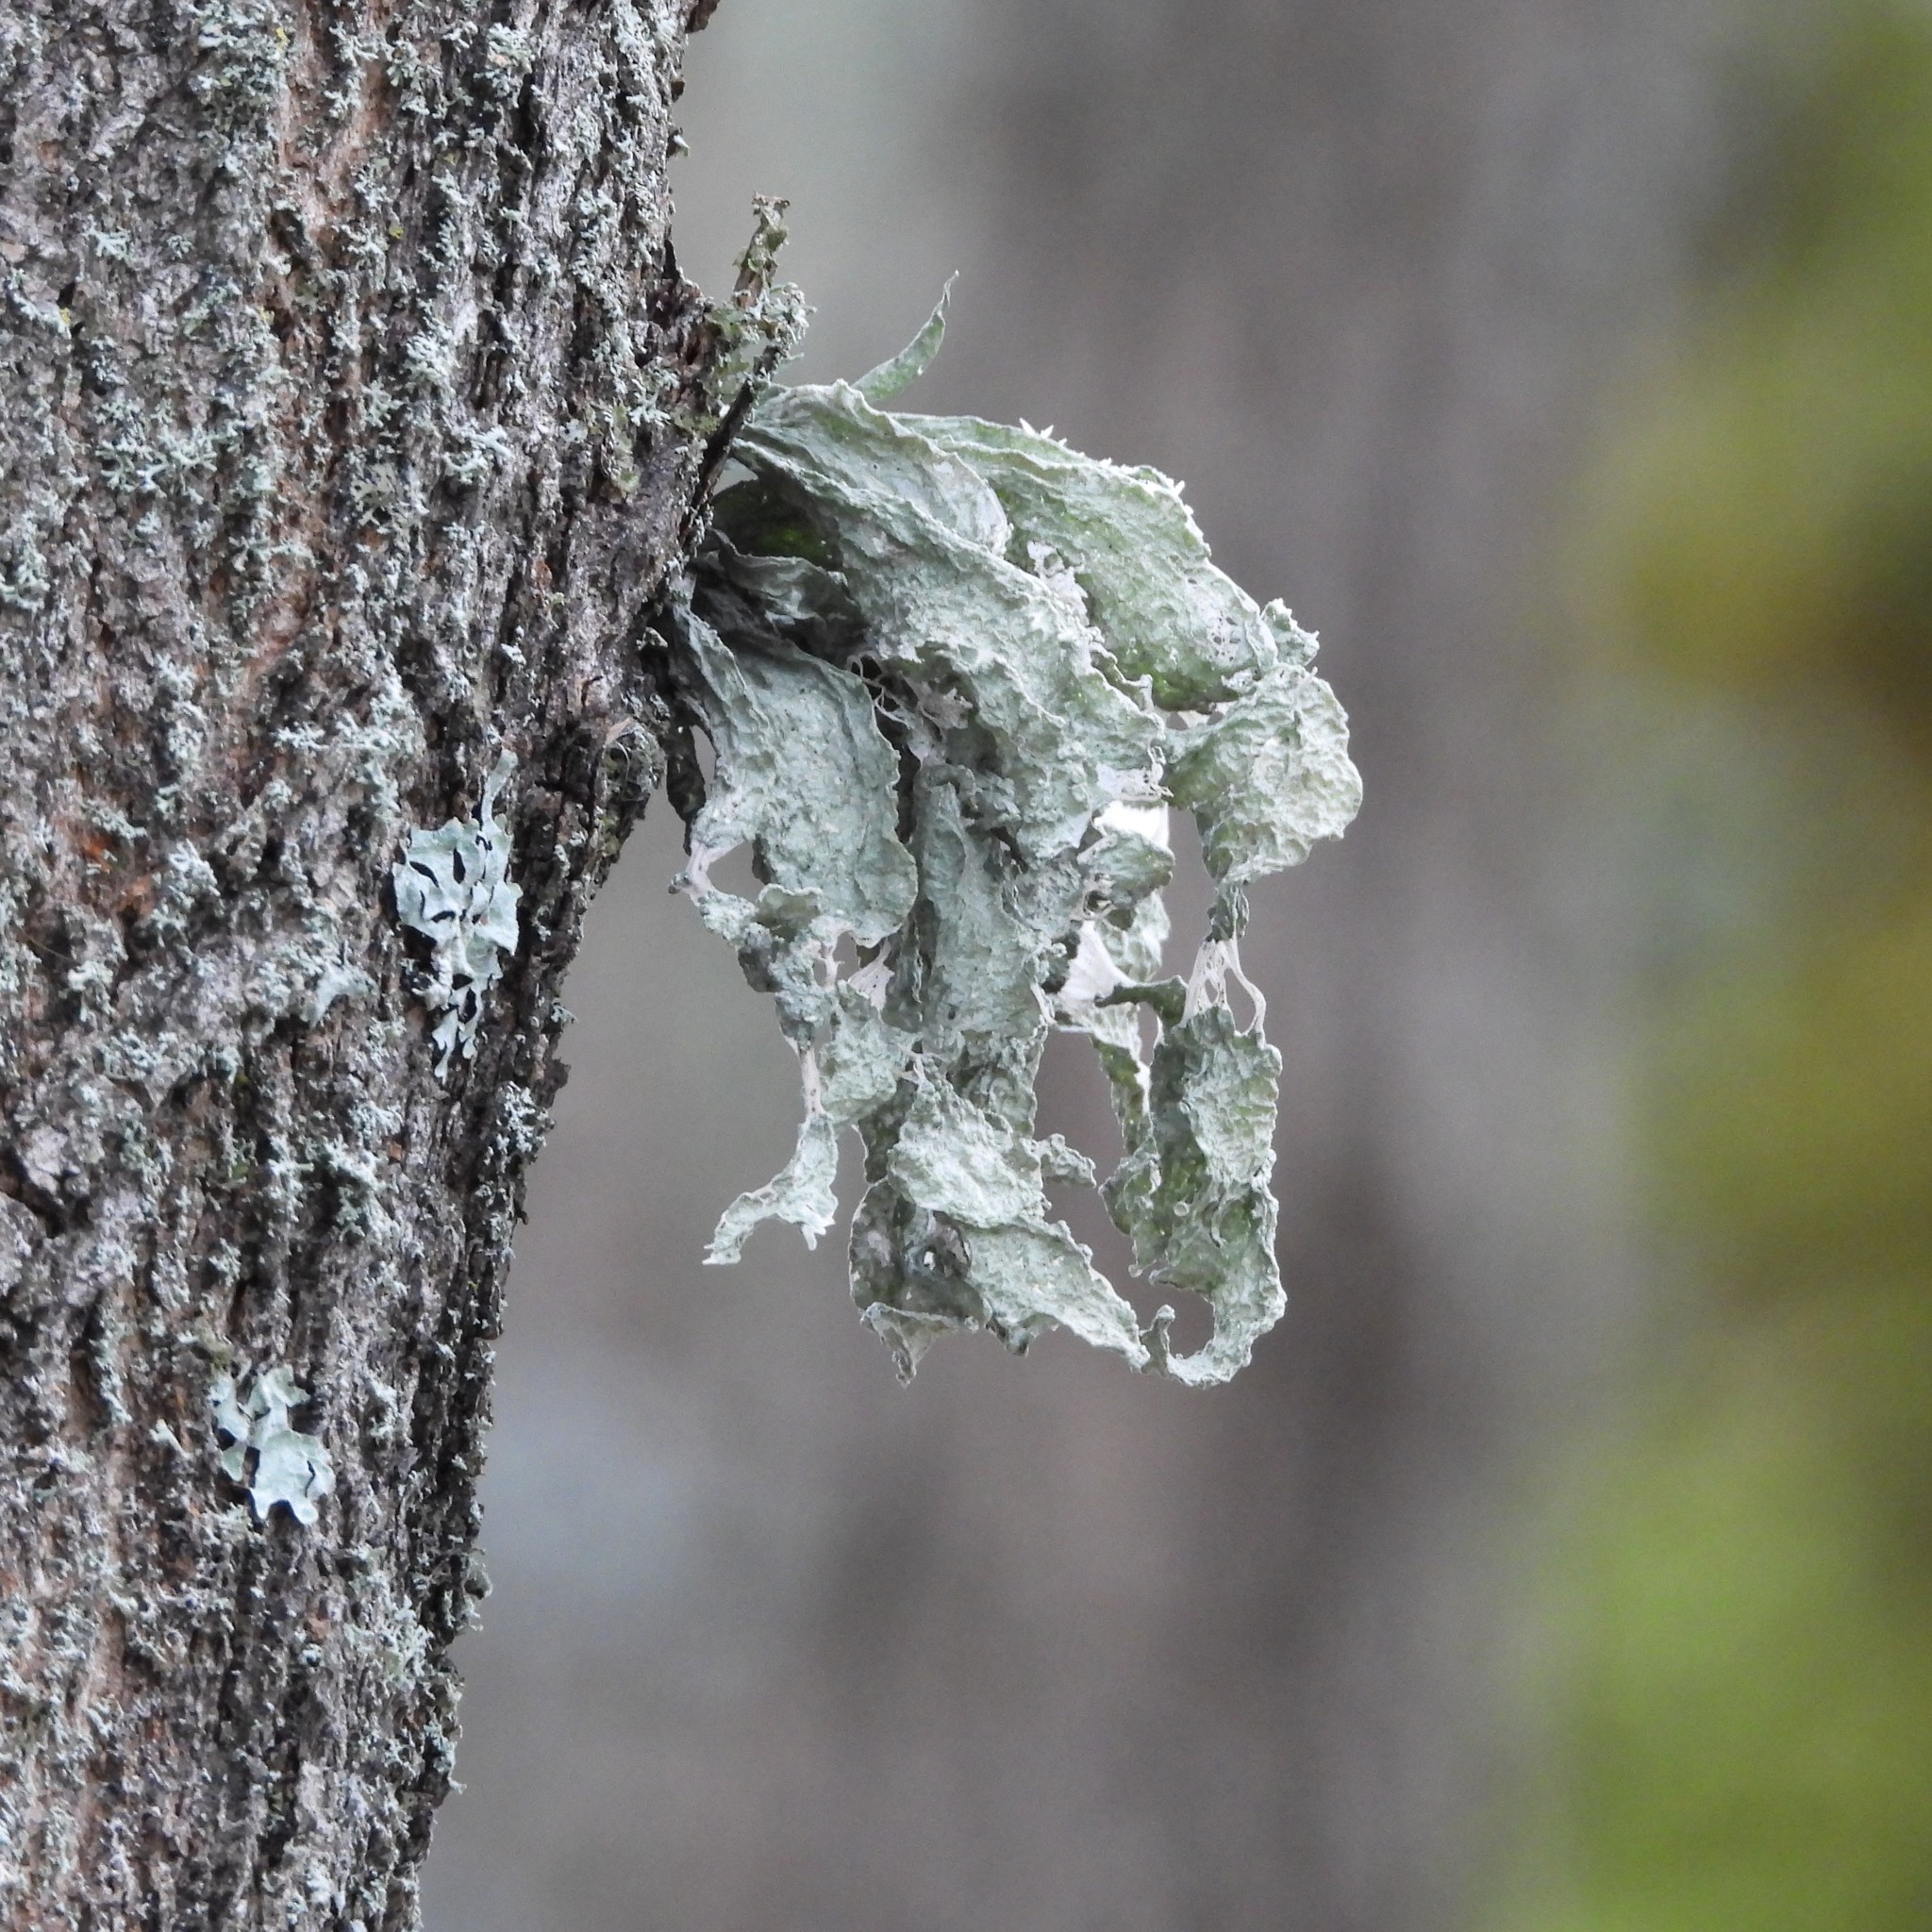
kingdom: Fungi
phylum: Ascomycota
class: Lecanoromycetes
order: Lecanorales
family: Ramalinaceae
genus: Ramalina
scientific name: Ramalina fraxinea
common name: Cartilage lichen
